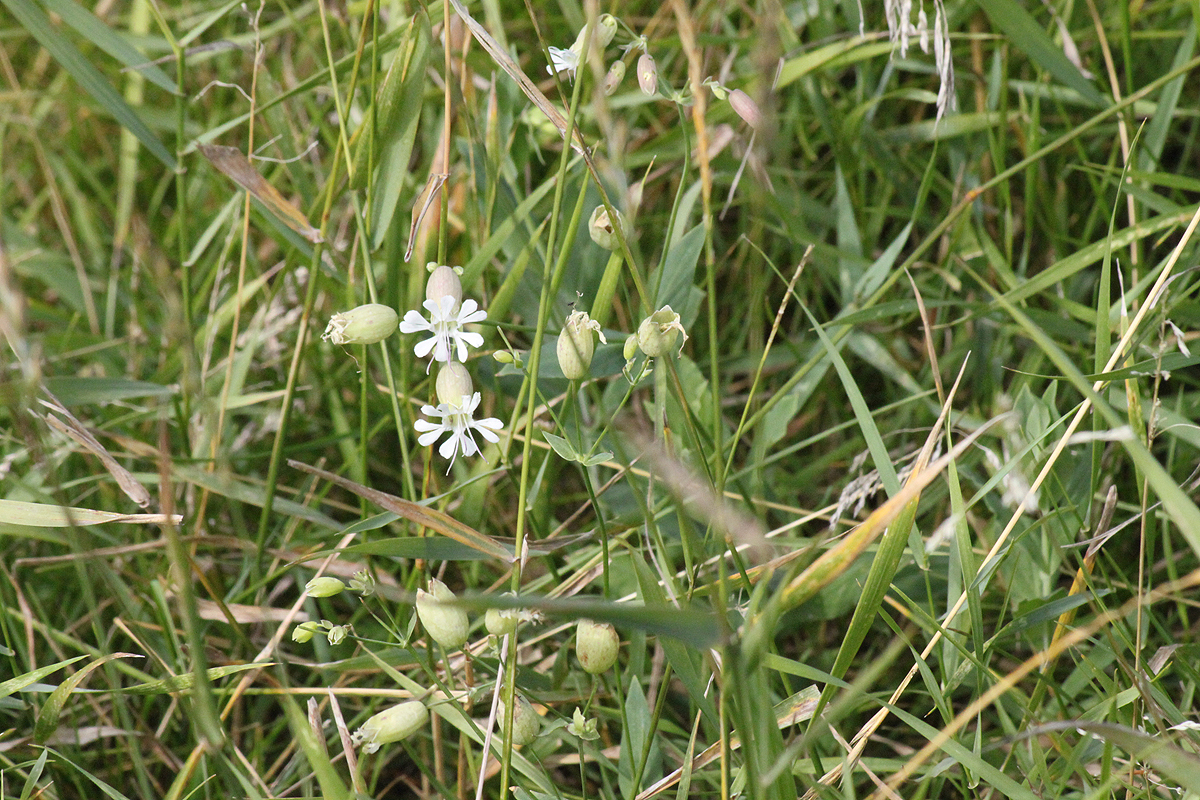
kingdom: Plantae
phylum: Tracheophyta
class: Magnoliopsida
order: Caryophyllales
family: Caryophyllaceae
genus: Silene
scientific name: Silene vulgaris
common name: Bladder campion
